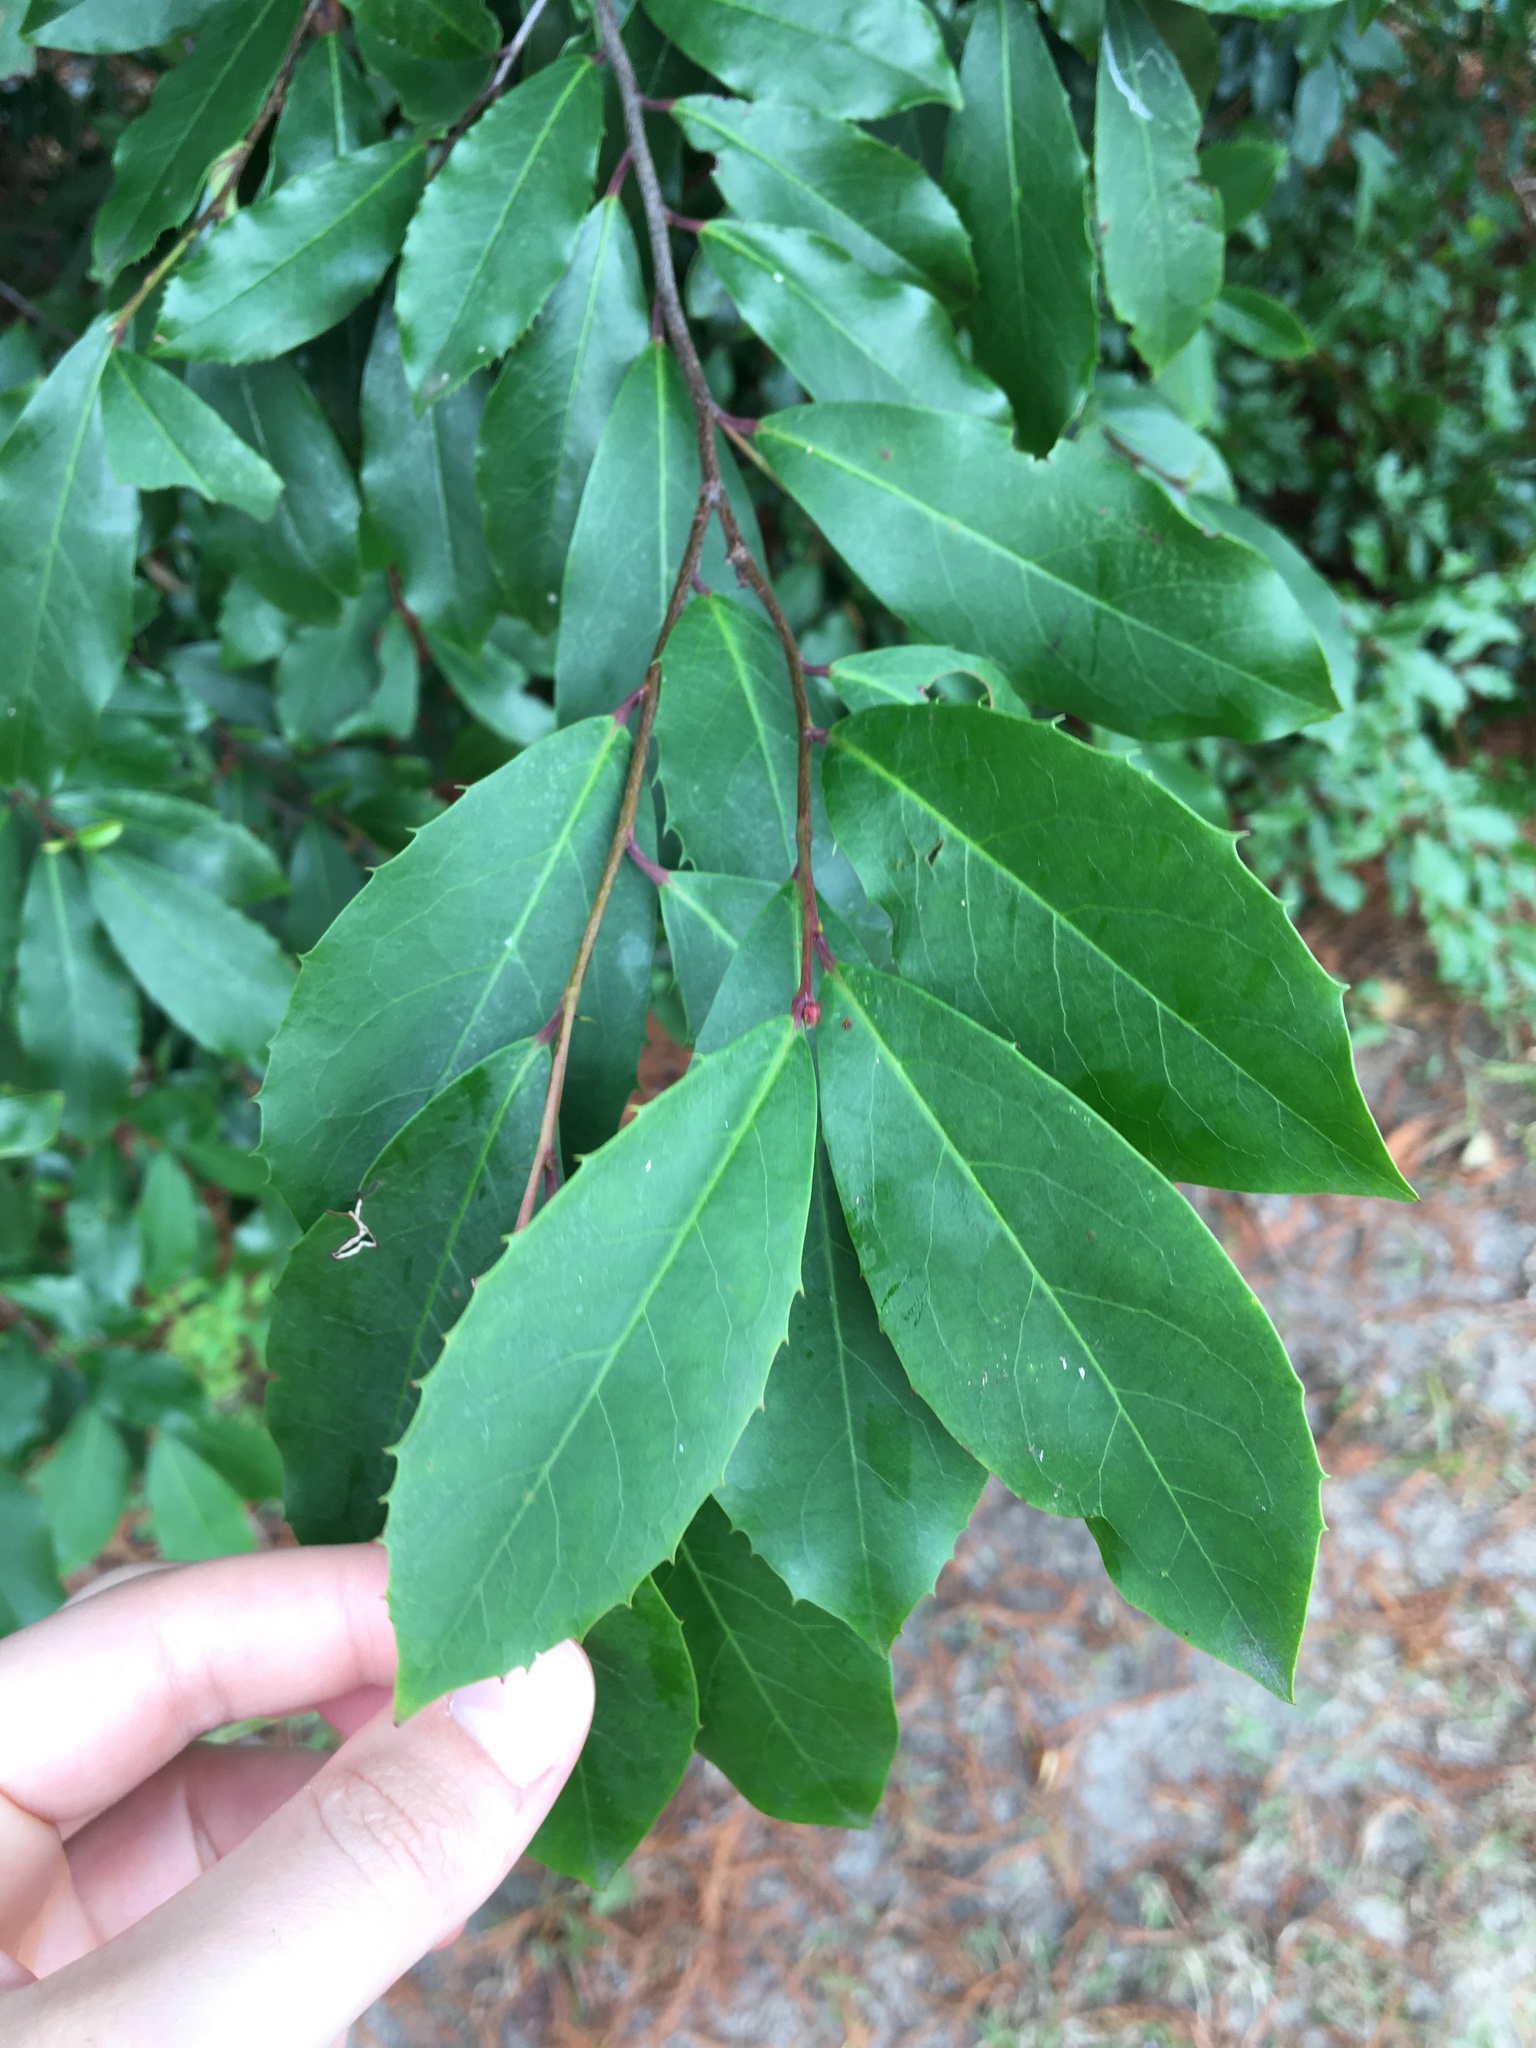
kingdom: Plantae
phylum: Tracheophyta
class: Magnoliopsida
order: Rosales
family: Rosaceae
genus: Prunus
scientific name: Prunus caroliniana
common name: Carolina laurel cherry
